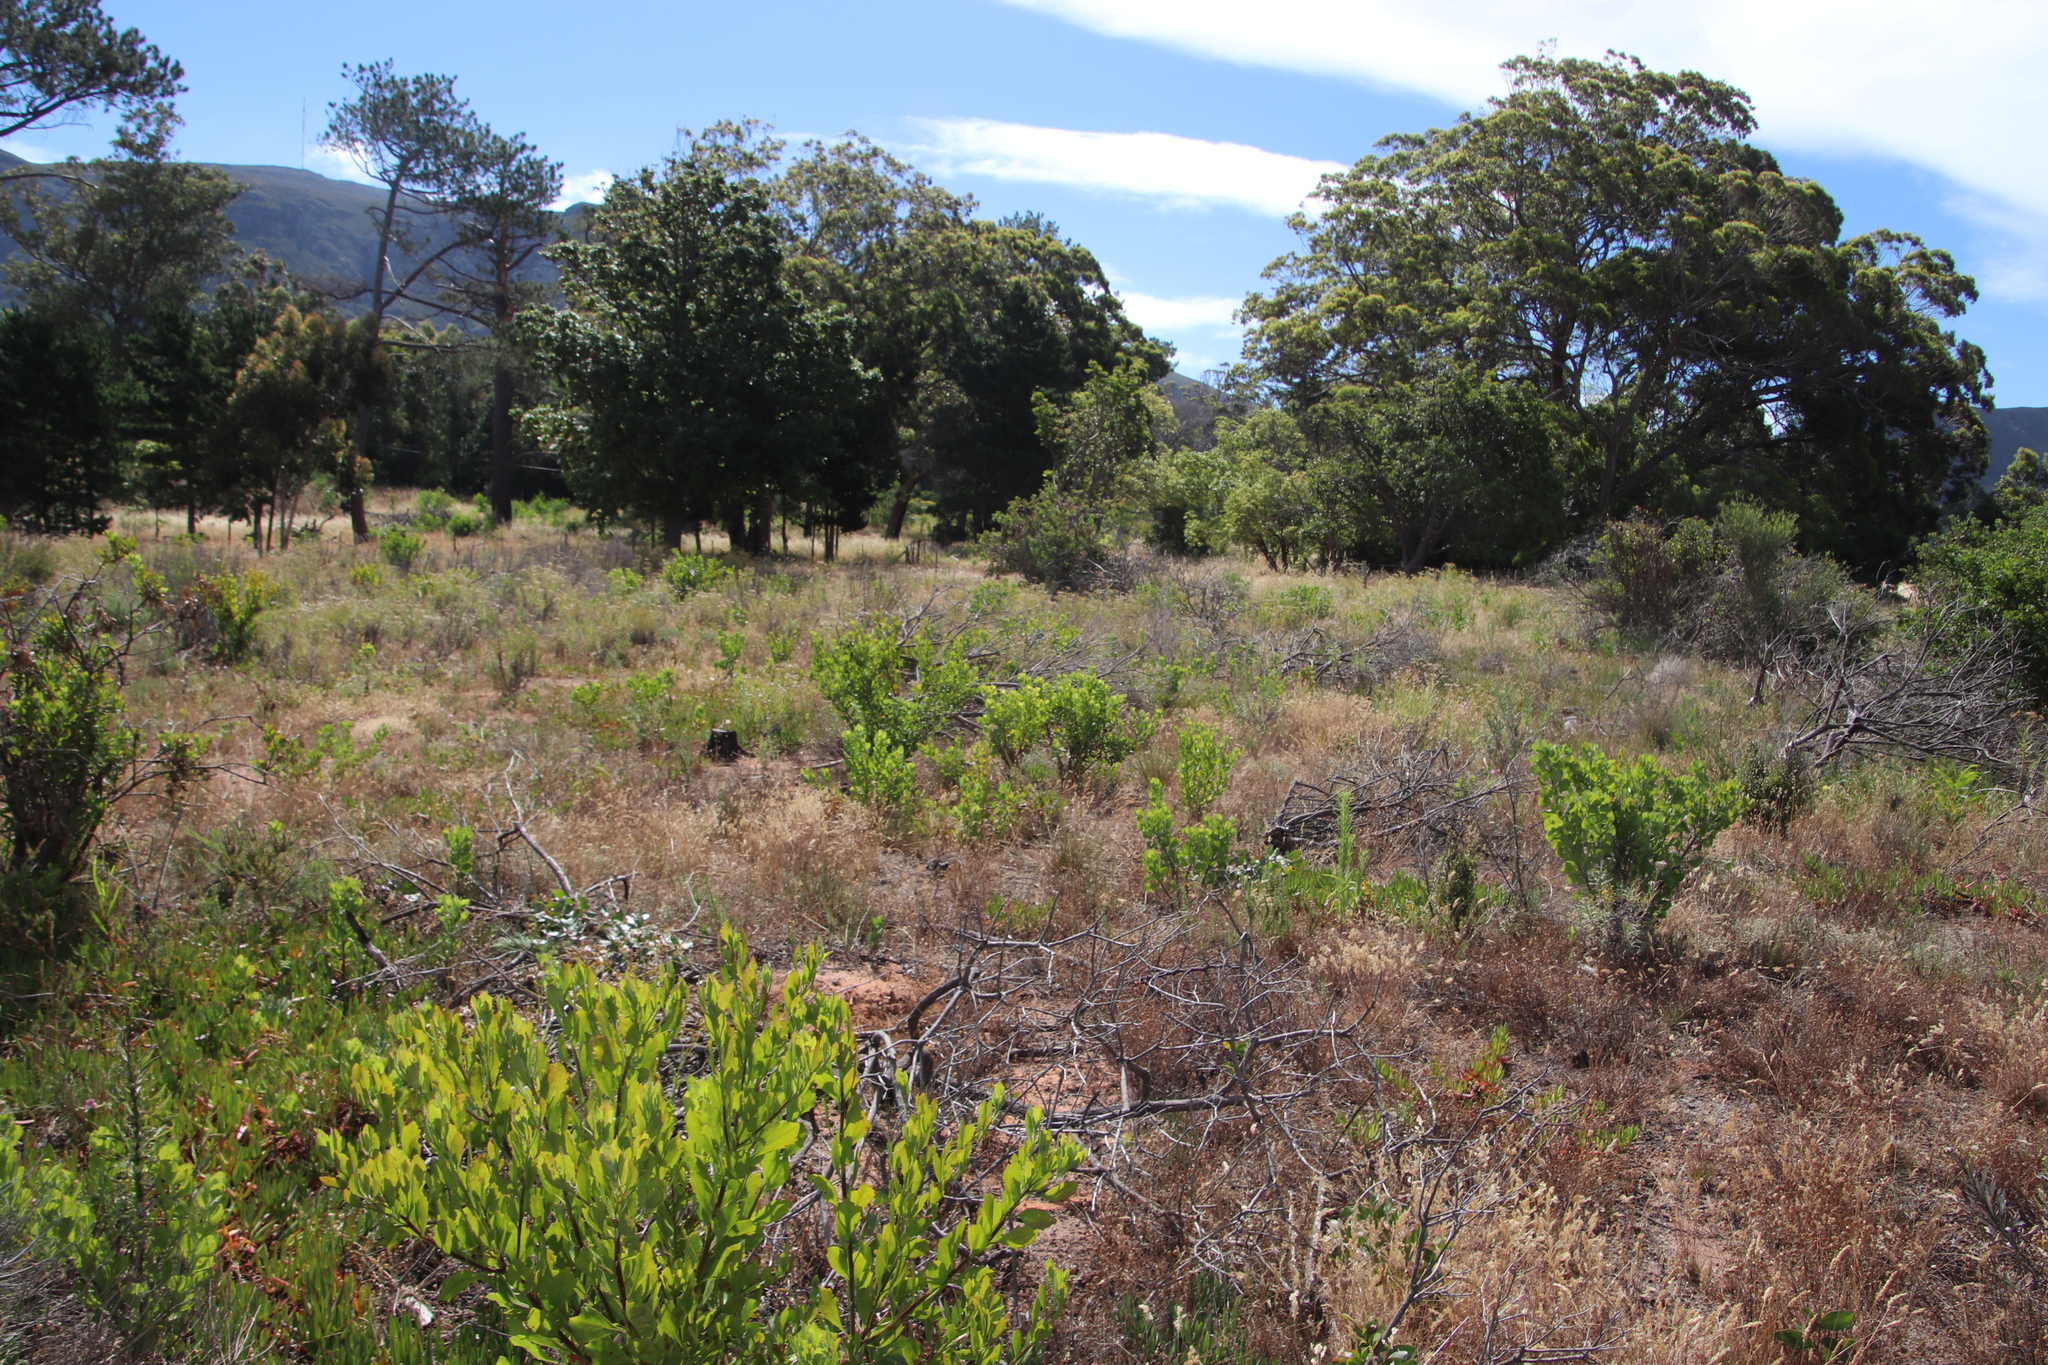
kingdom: Plantae
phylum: Tracheophyta
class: Magnoliopsida
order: Asterales
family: Asteraceae
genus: Osteospermum
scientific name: Osteospermum moniliferum
